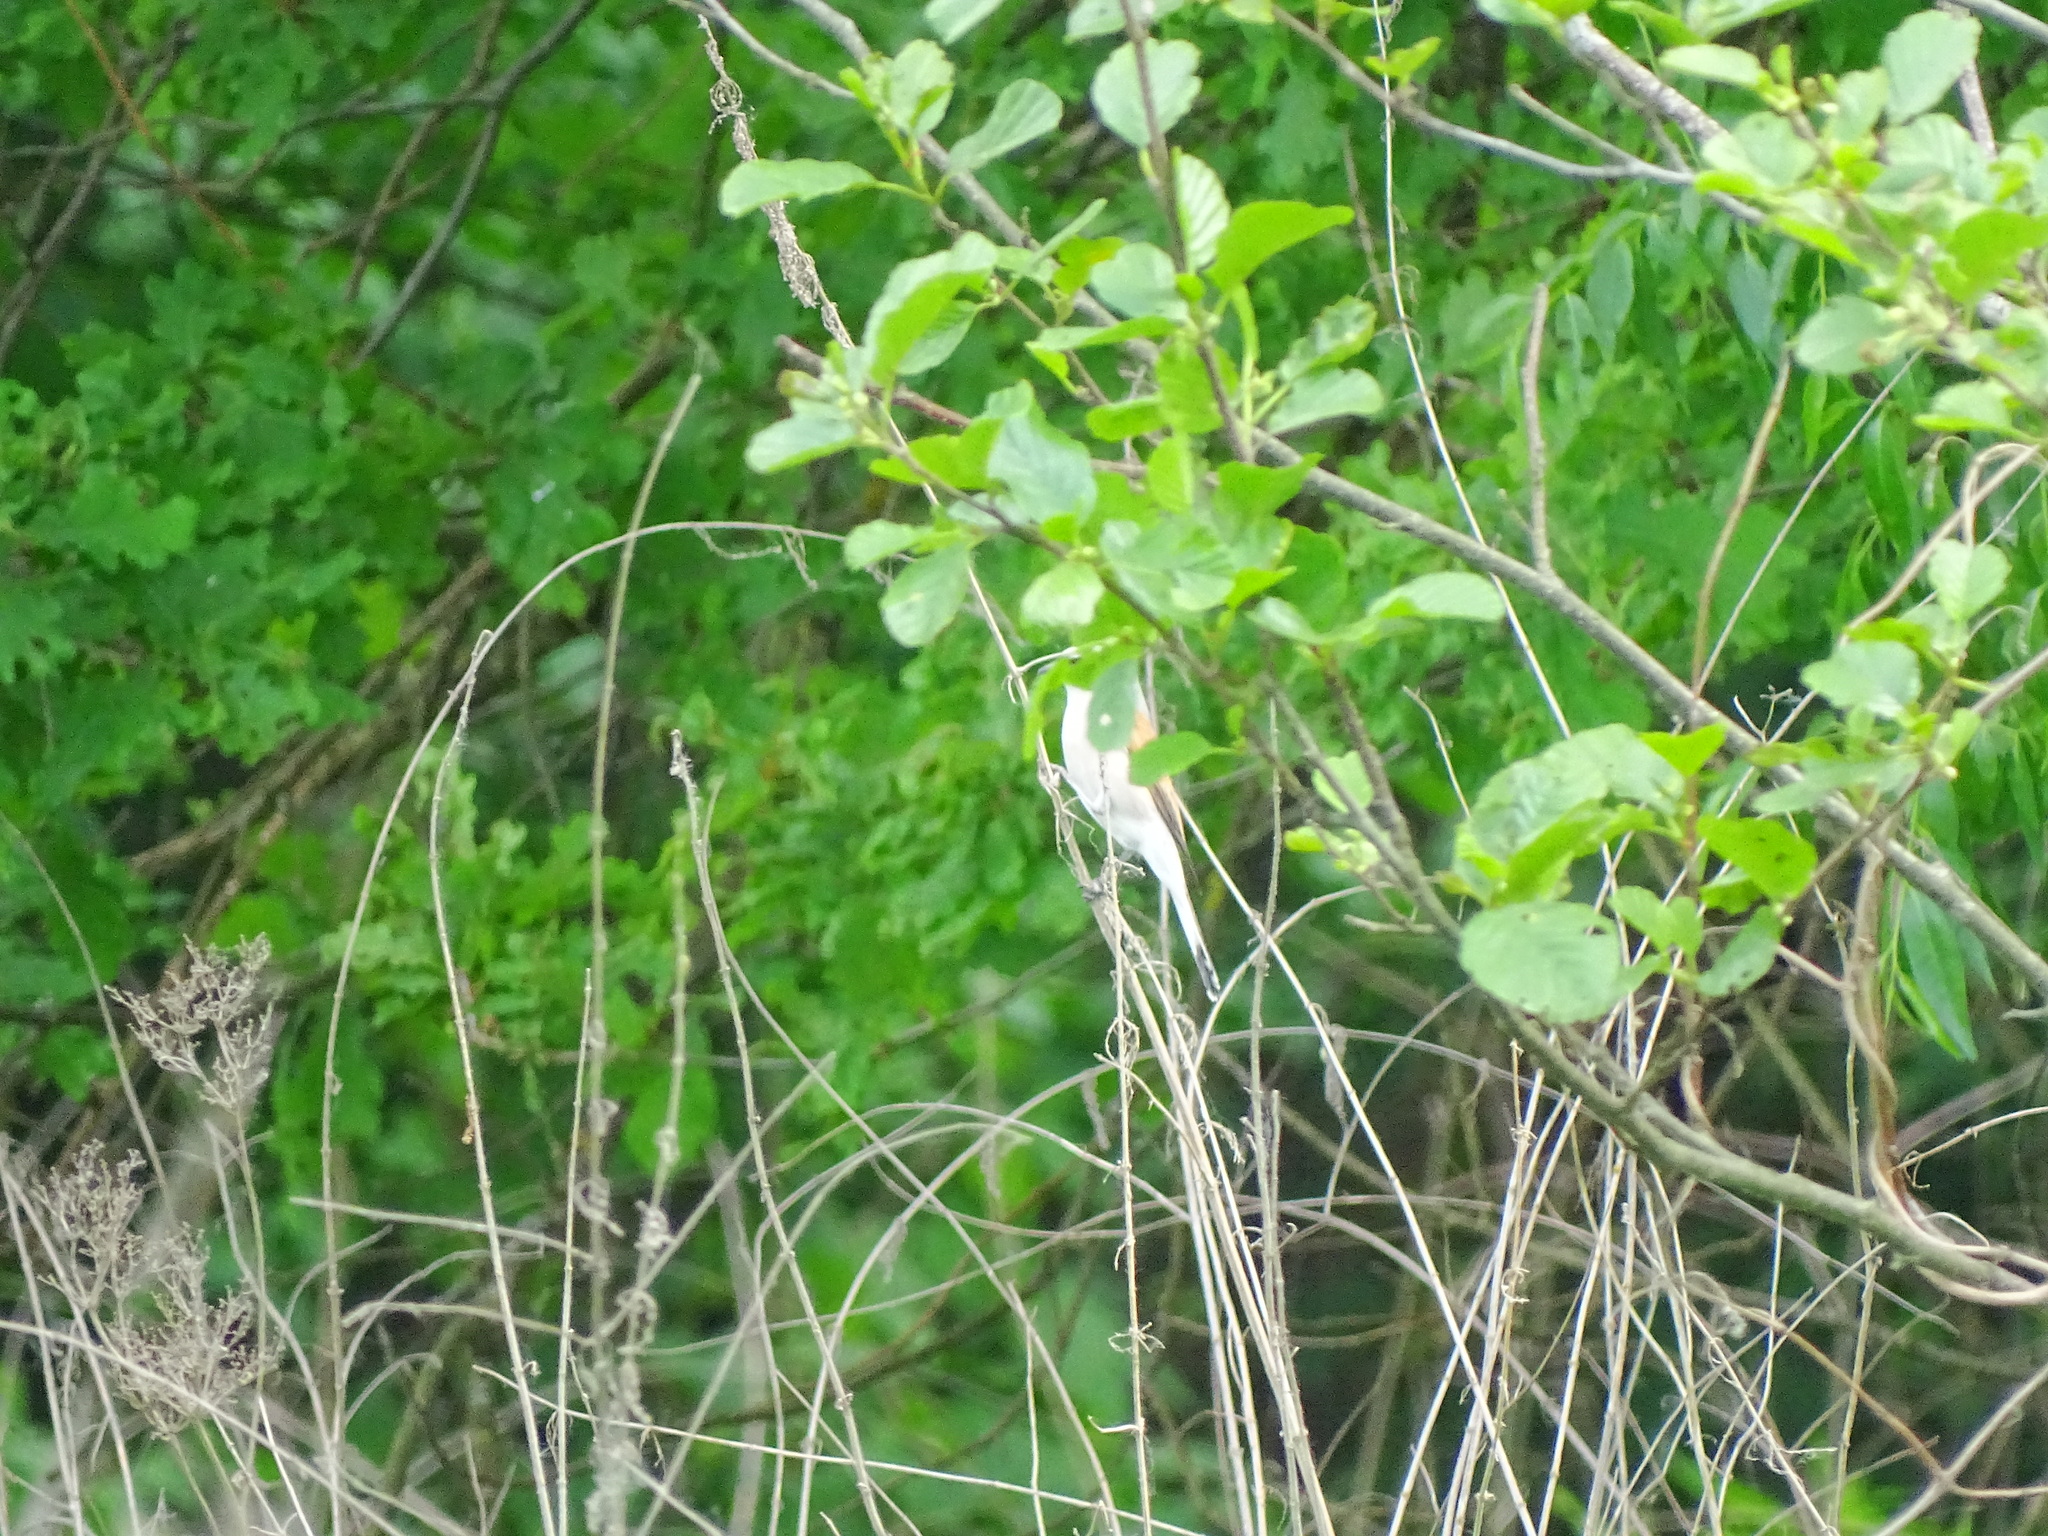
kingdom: Animalia
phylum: Chordata
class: Aves
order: Passeriformes
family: Laniidae
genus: Lanius
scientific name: Lanius collurio
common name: Red-backed shrike
